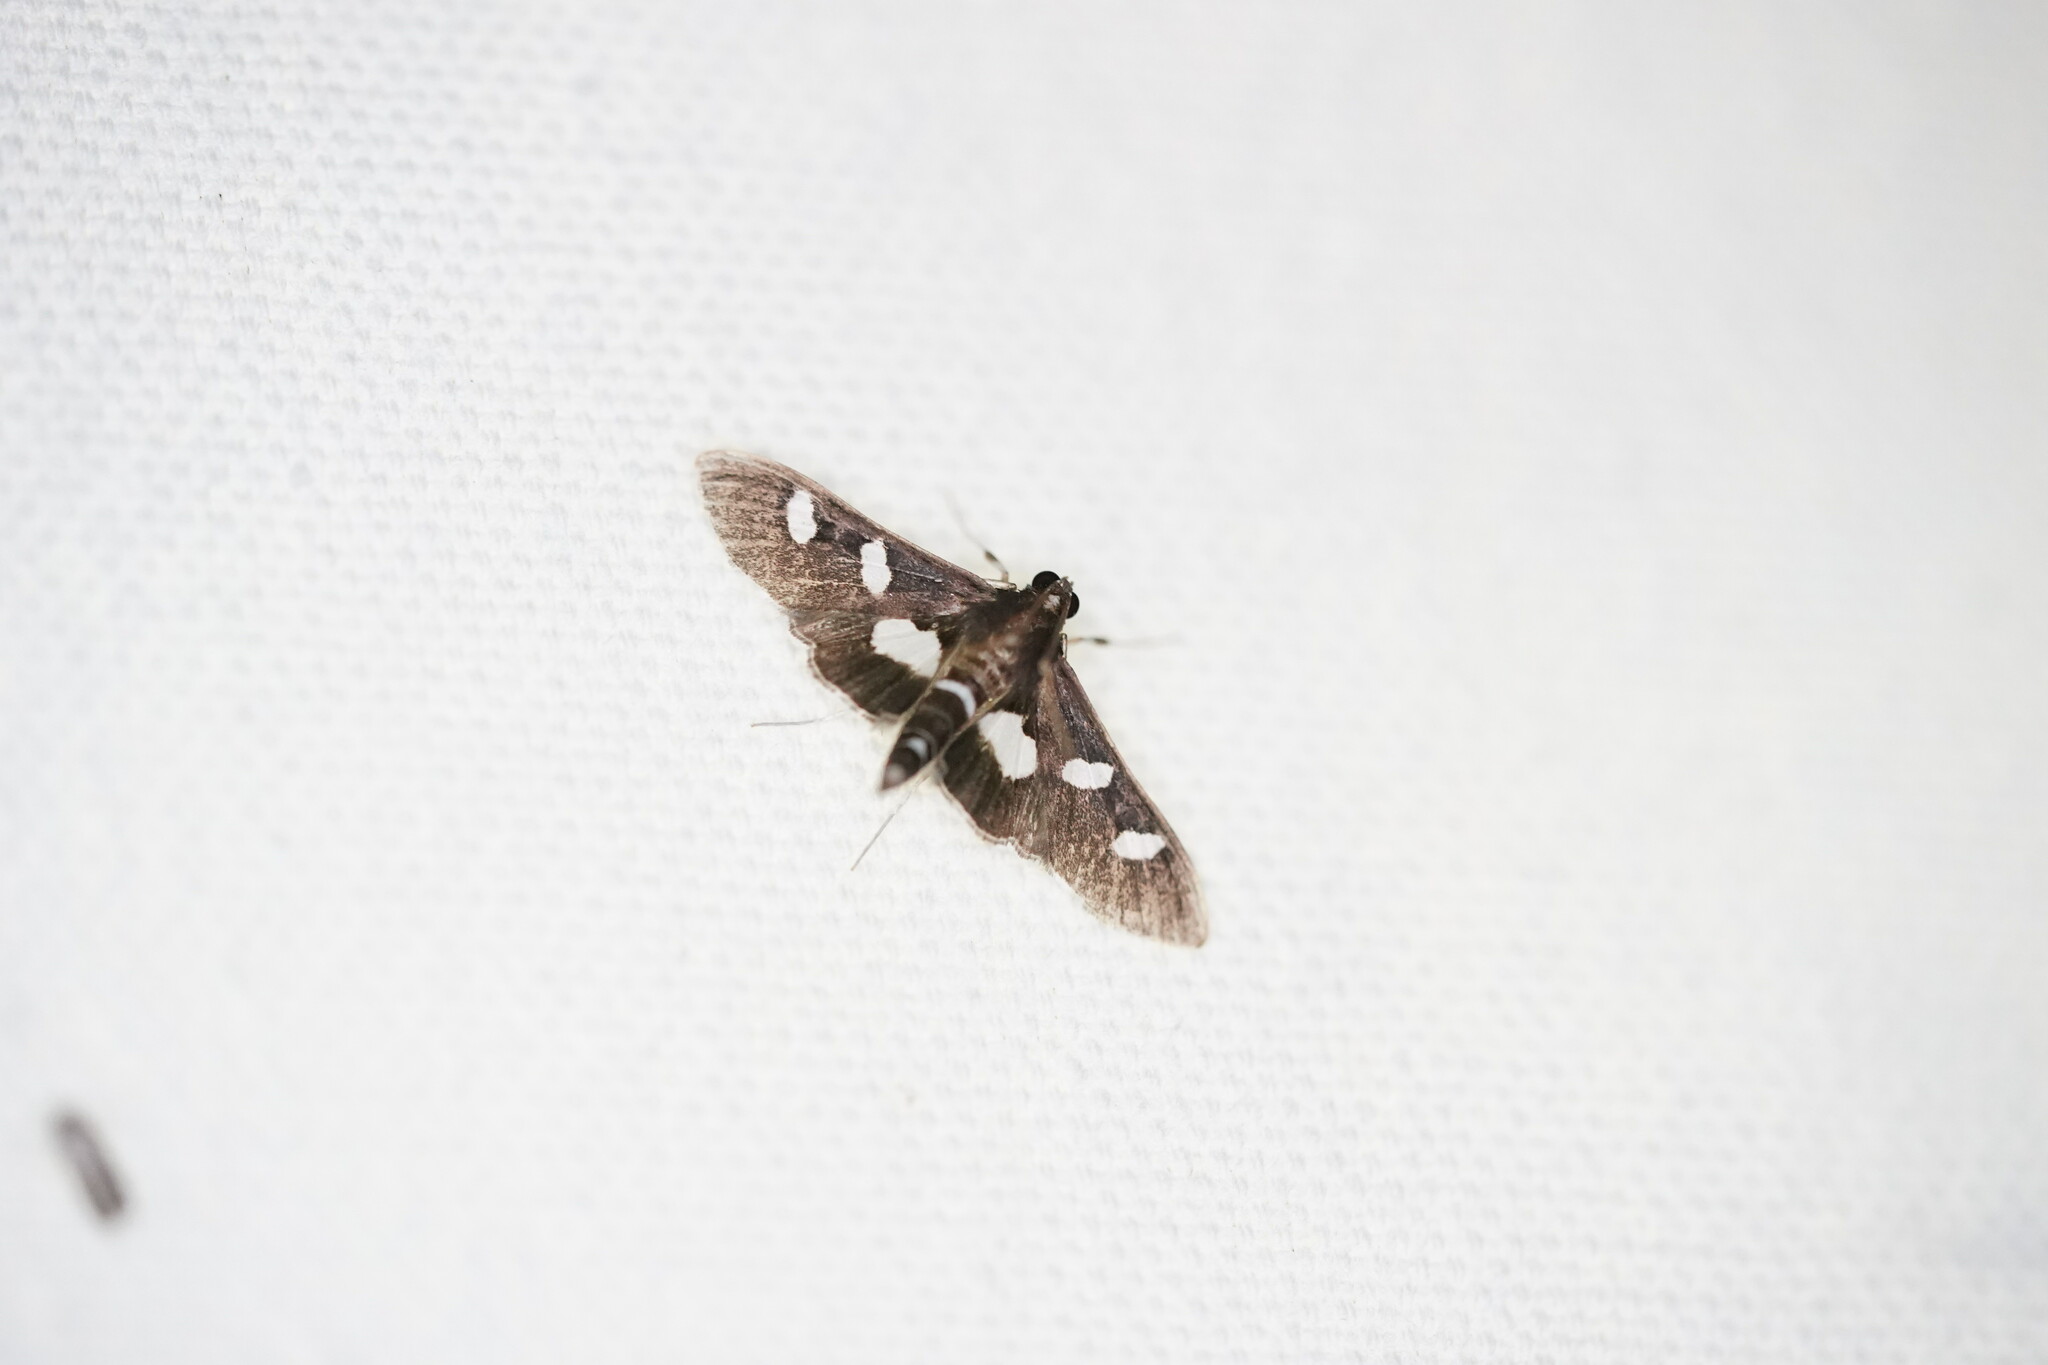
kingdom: Animalia
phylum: Arthropoda
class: Insecta
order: Lepidoptera
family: Crambidae
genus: Desmia
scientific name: Desmia
